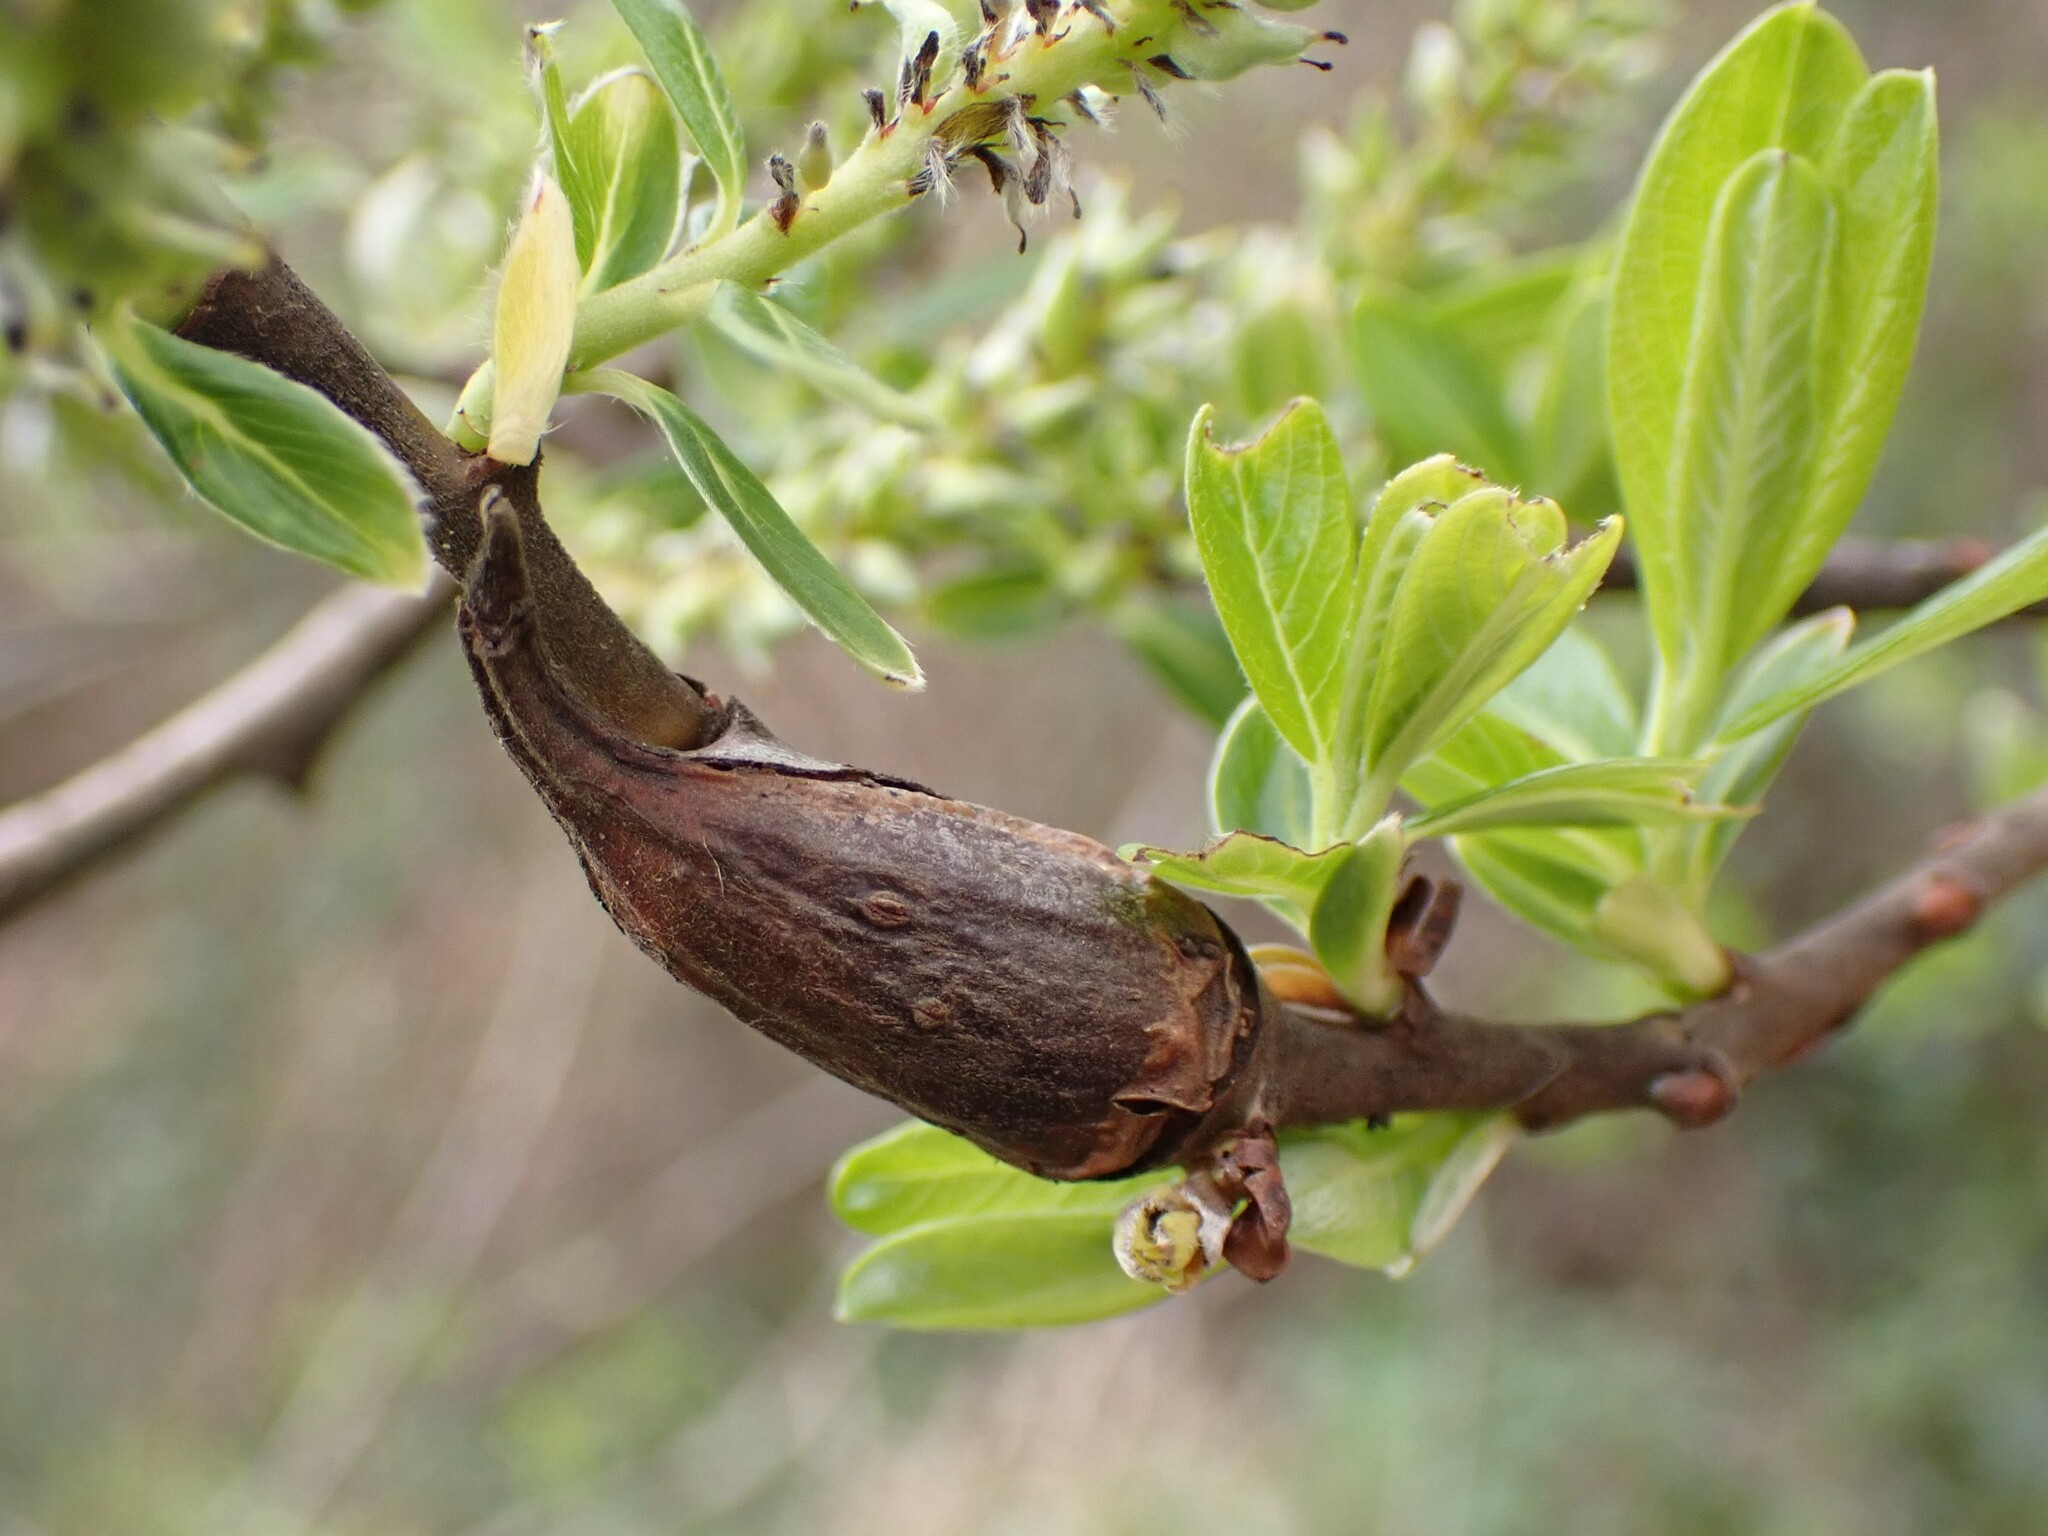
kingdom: Animalia
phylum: Arthropoda
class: Insecta
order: Diptera
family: Cecidomyiidae
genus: Thecodiplosis
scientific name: Thecodiplosis pinirigidae
